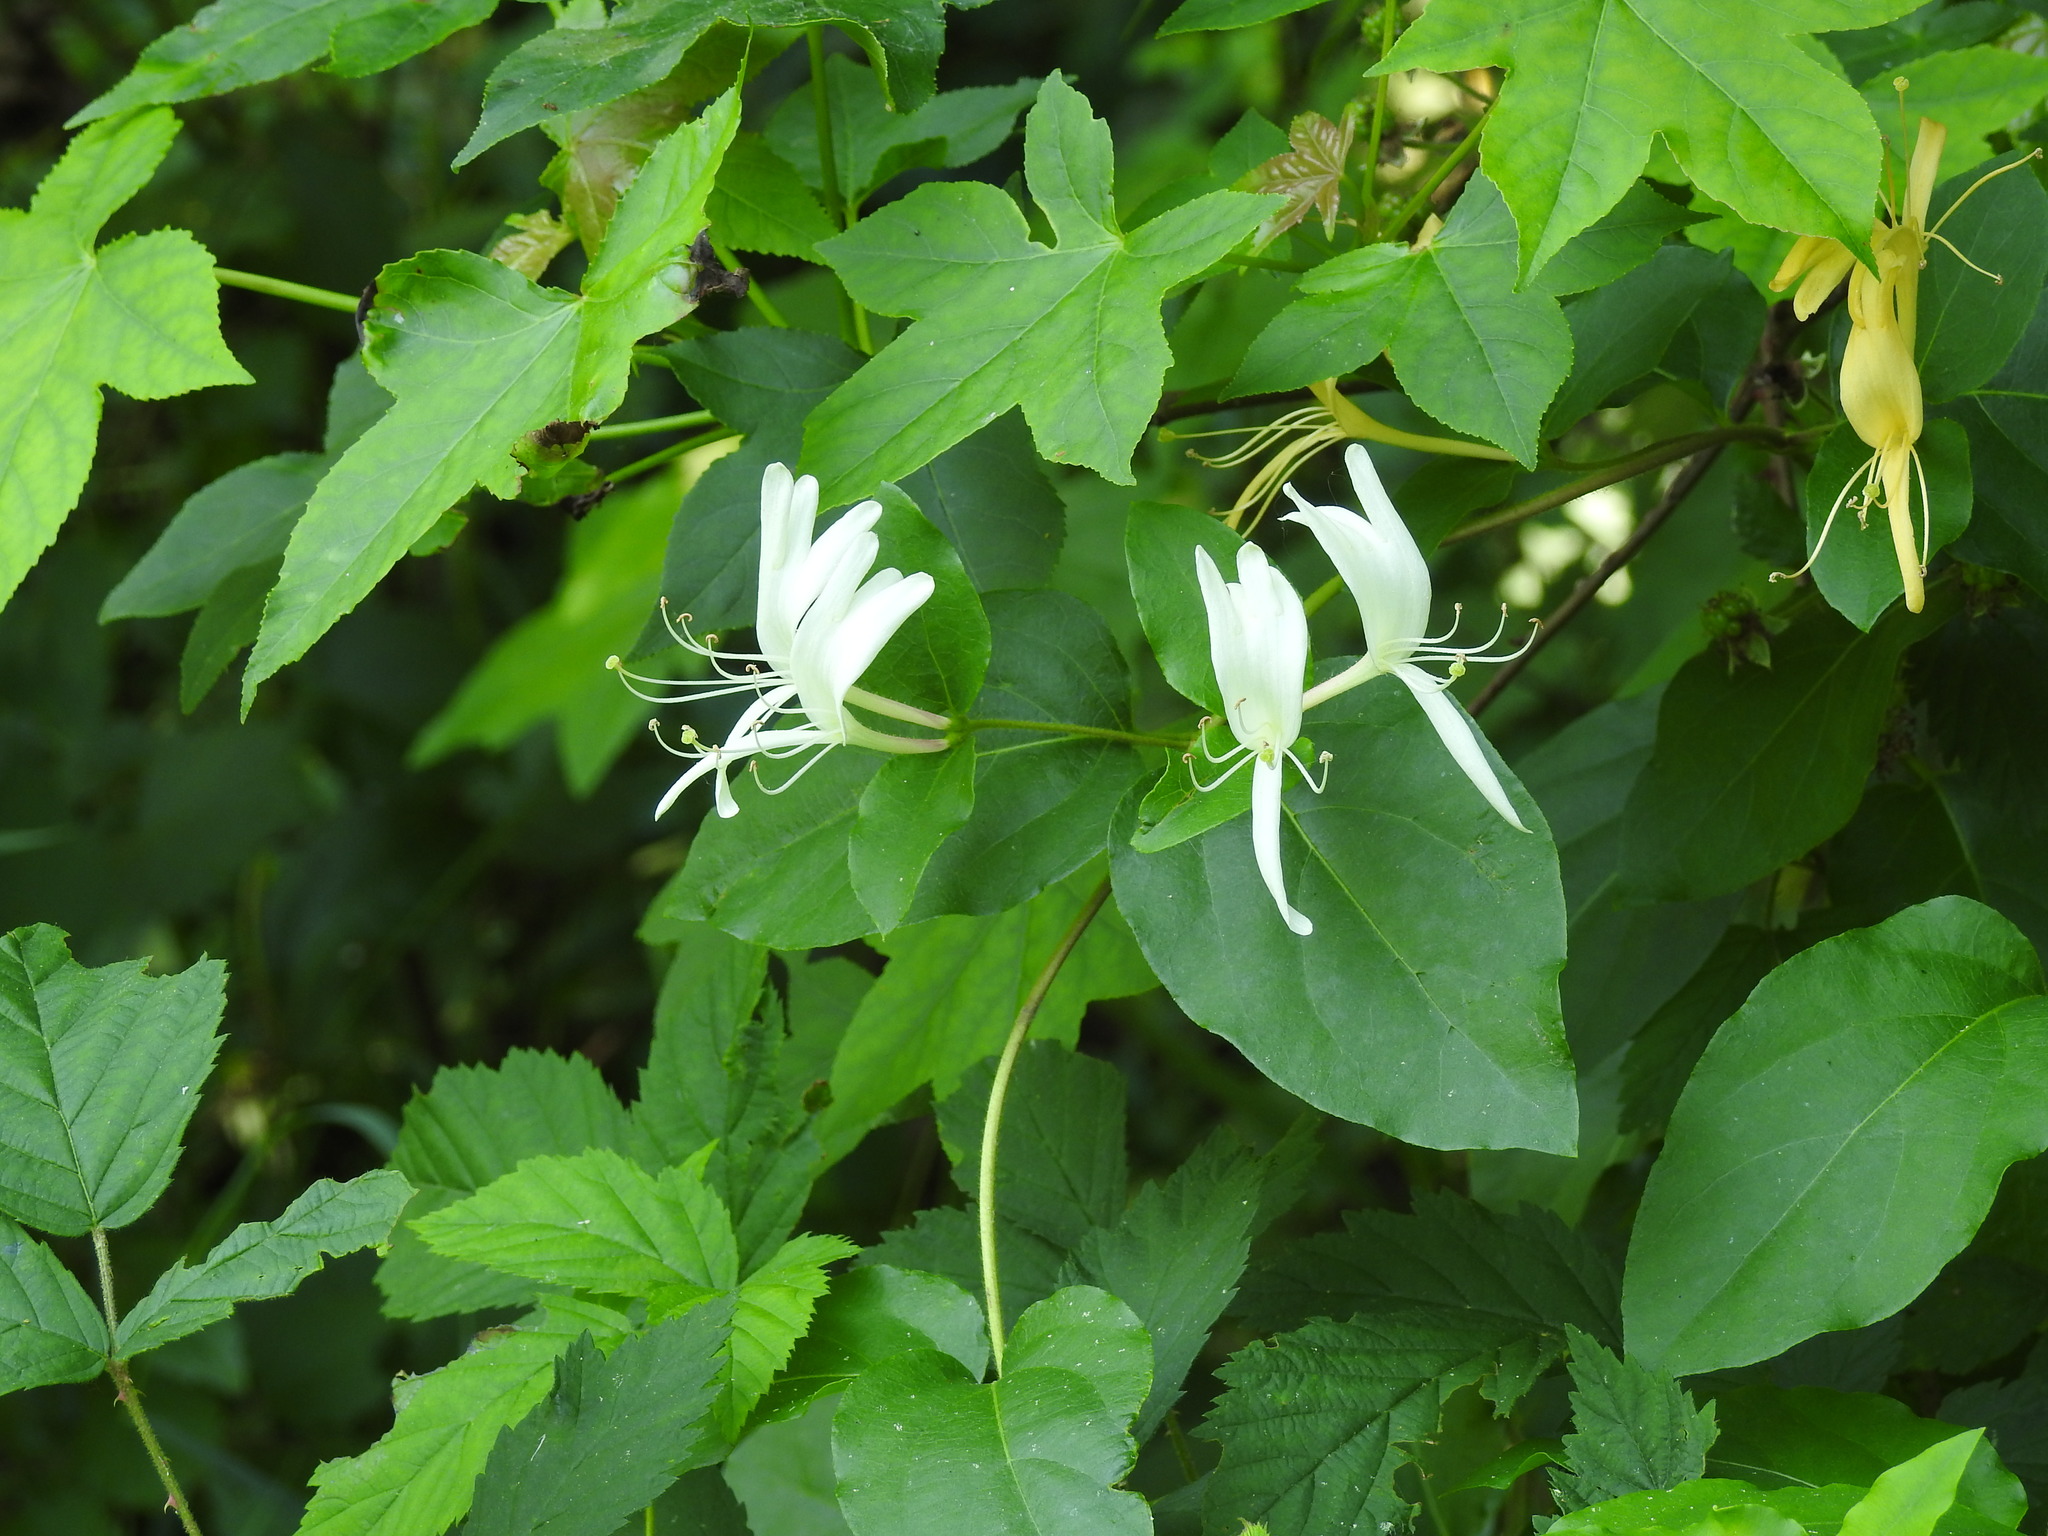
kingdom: Plantae
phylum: Tracheophyta
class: Magnoliopsida
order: Dipsacales
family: Caprifoliaceae
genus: Lonicera
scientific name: Lonicera japonica
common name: Japanese honeysuckle
